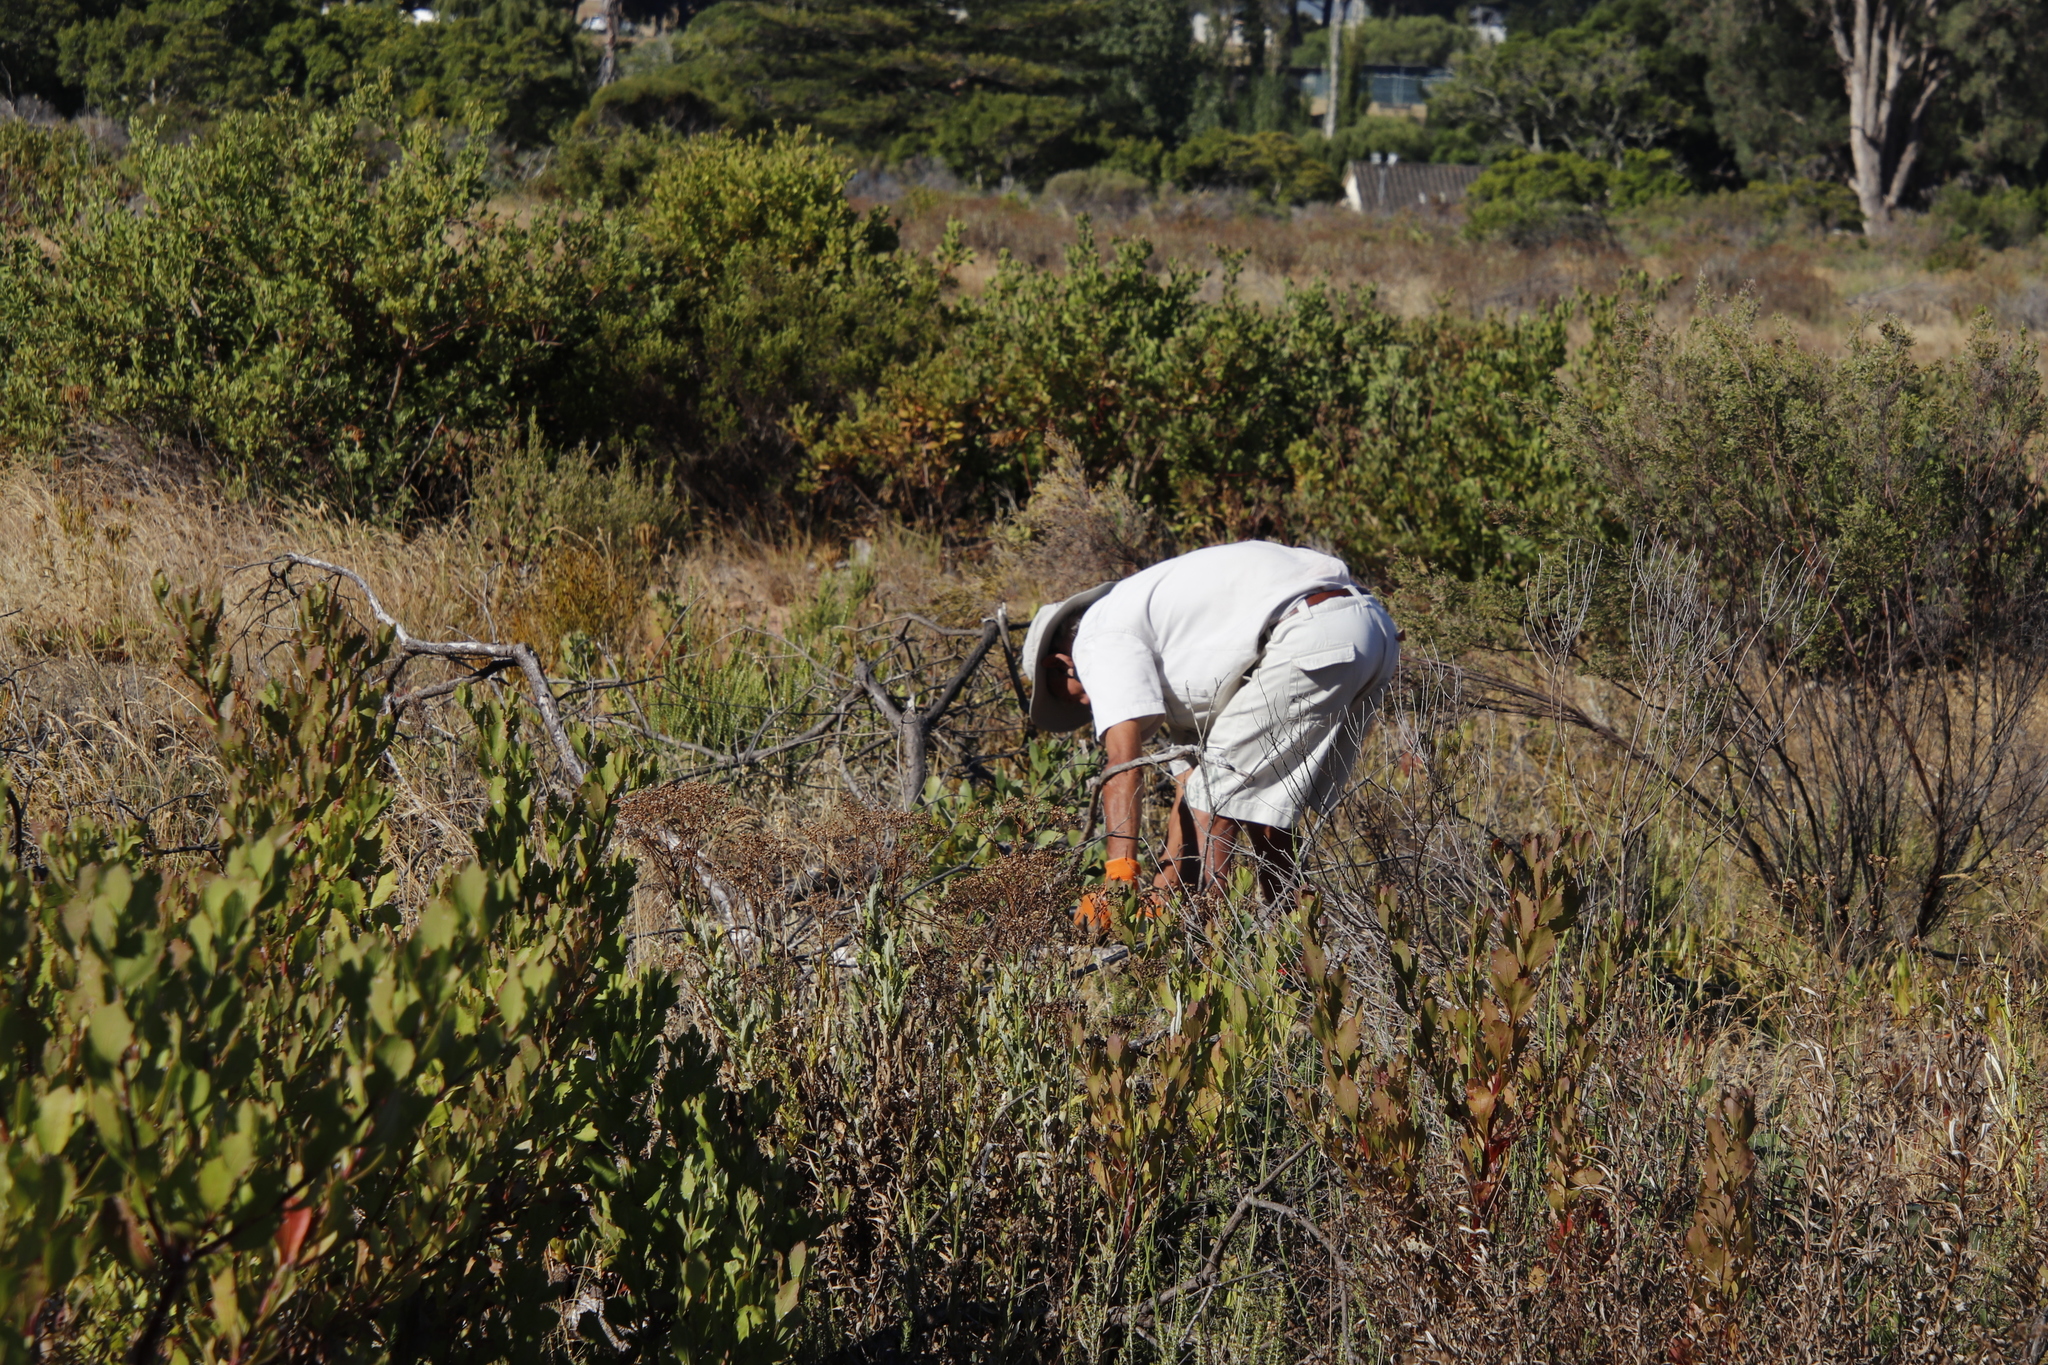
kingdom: Plantae
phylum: Tracheophyta
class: Magnoliopsida
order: Asterales
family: Asteraceae
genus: Osteospermum
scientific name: Osteospermum moniliferum
